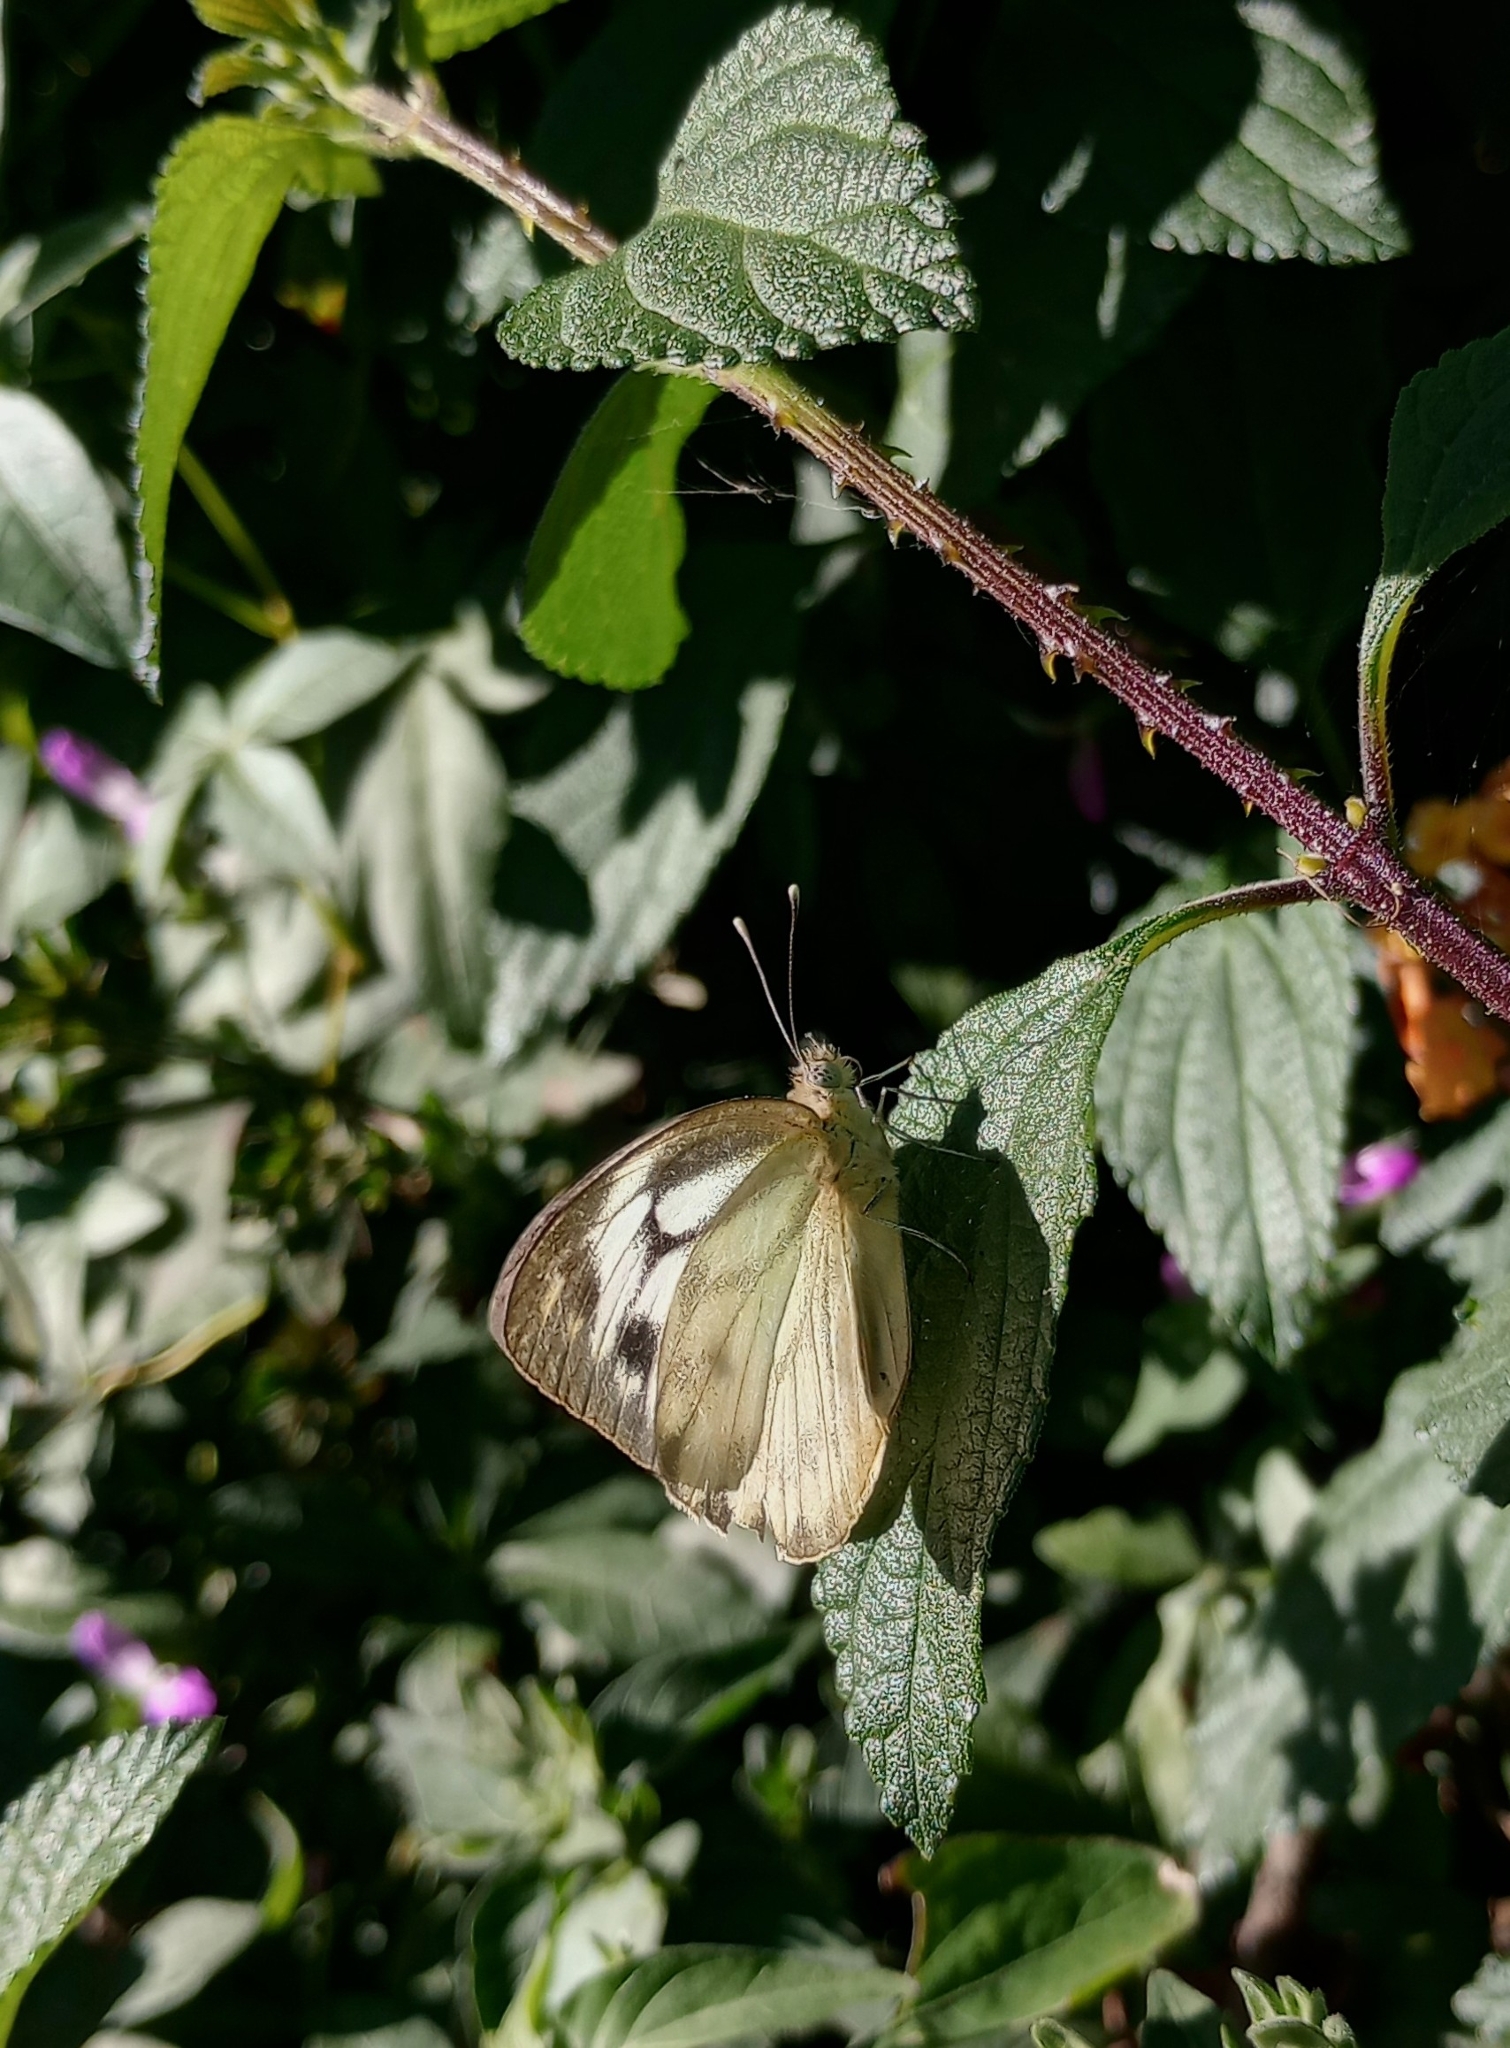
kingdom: Animalia
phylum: Arthropoda
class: Insecta
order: Lepidoptera
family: Pieridae
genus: Cepora
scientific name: Cepora nerissa
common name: Common gull
